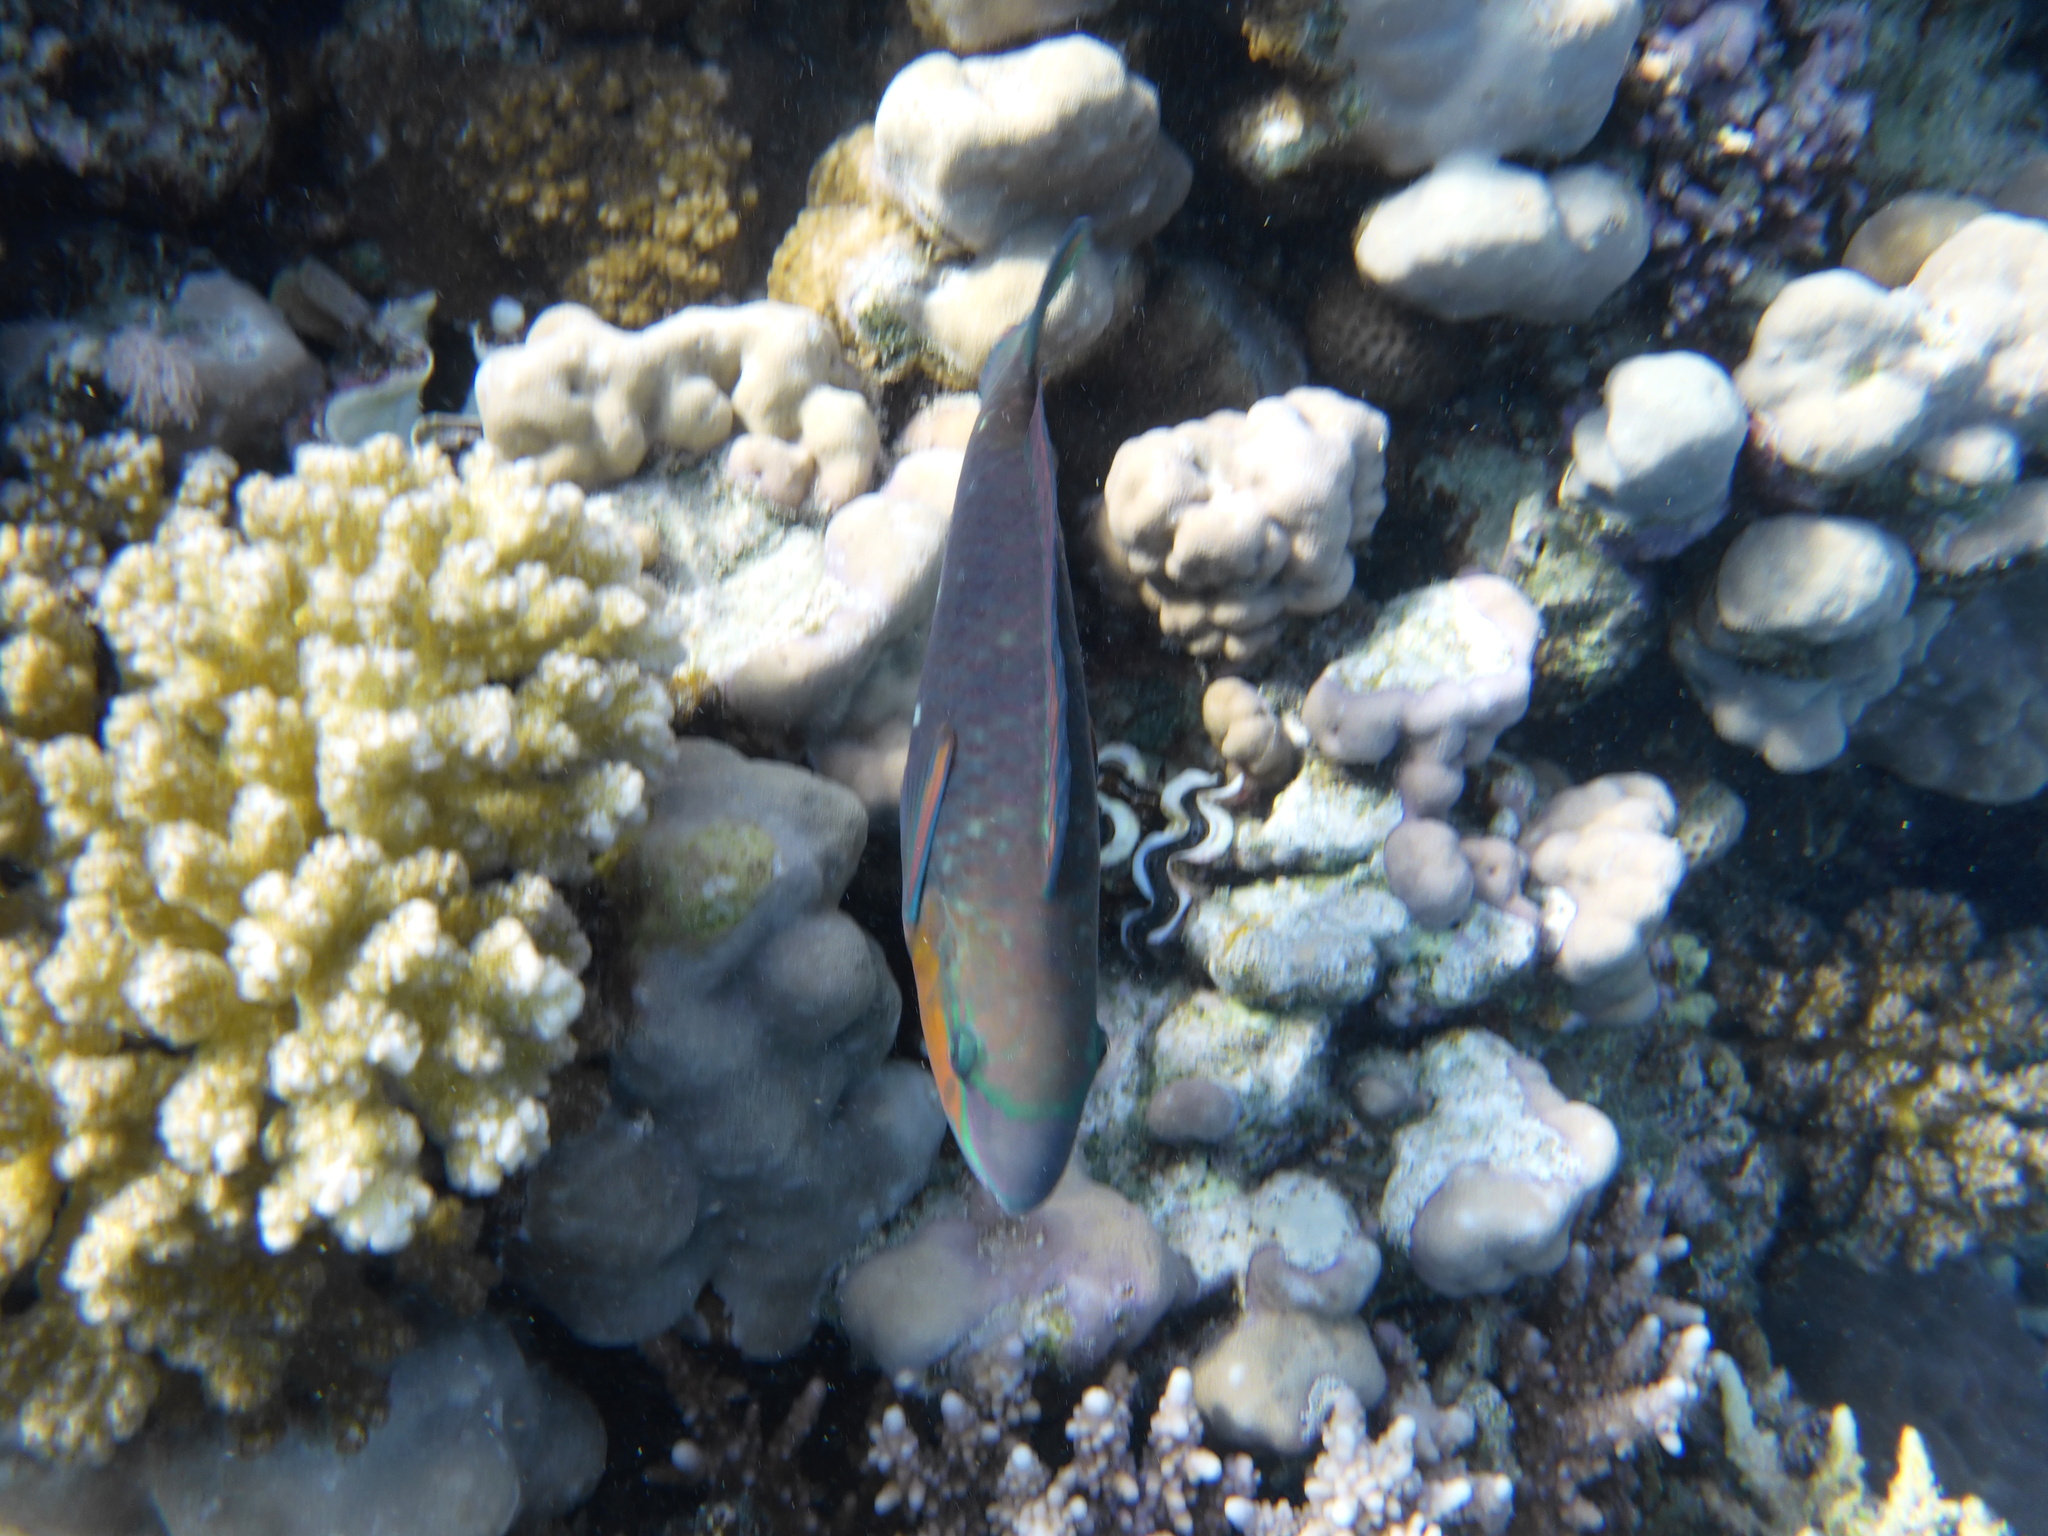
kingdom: Animalia
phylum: Chordata
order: Perciformes
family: Scaridae
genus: Chlorurus
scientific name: Chlorurus sordidus
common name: Bullethead parrotfish
